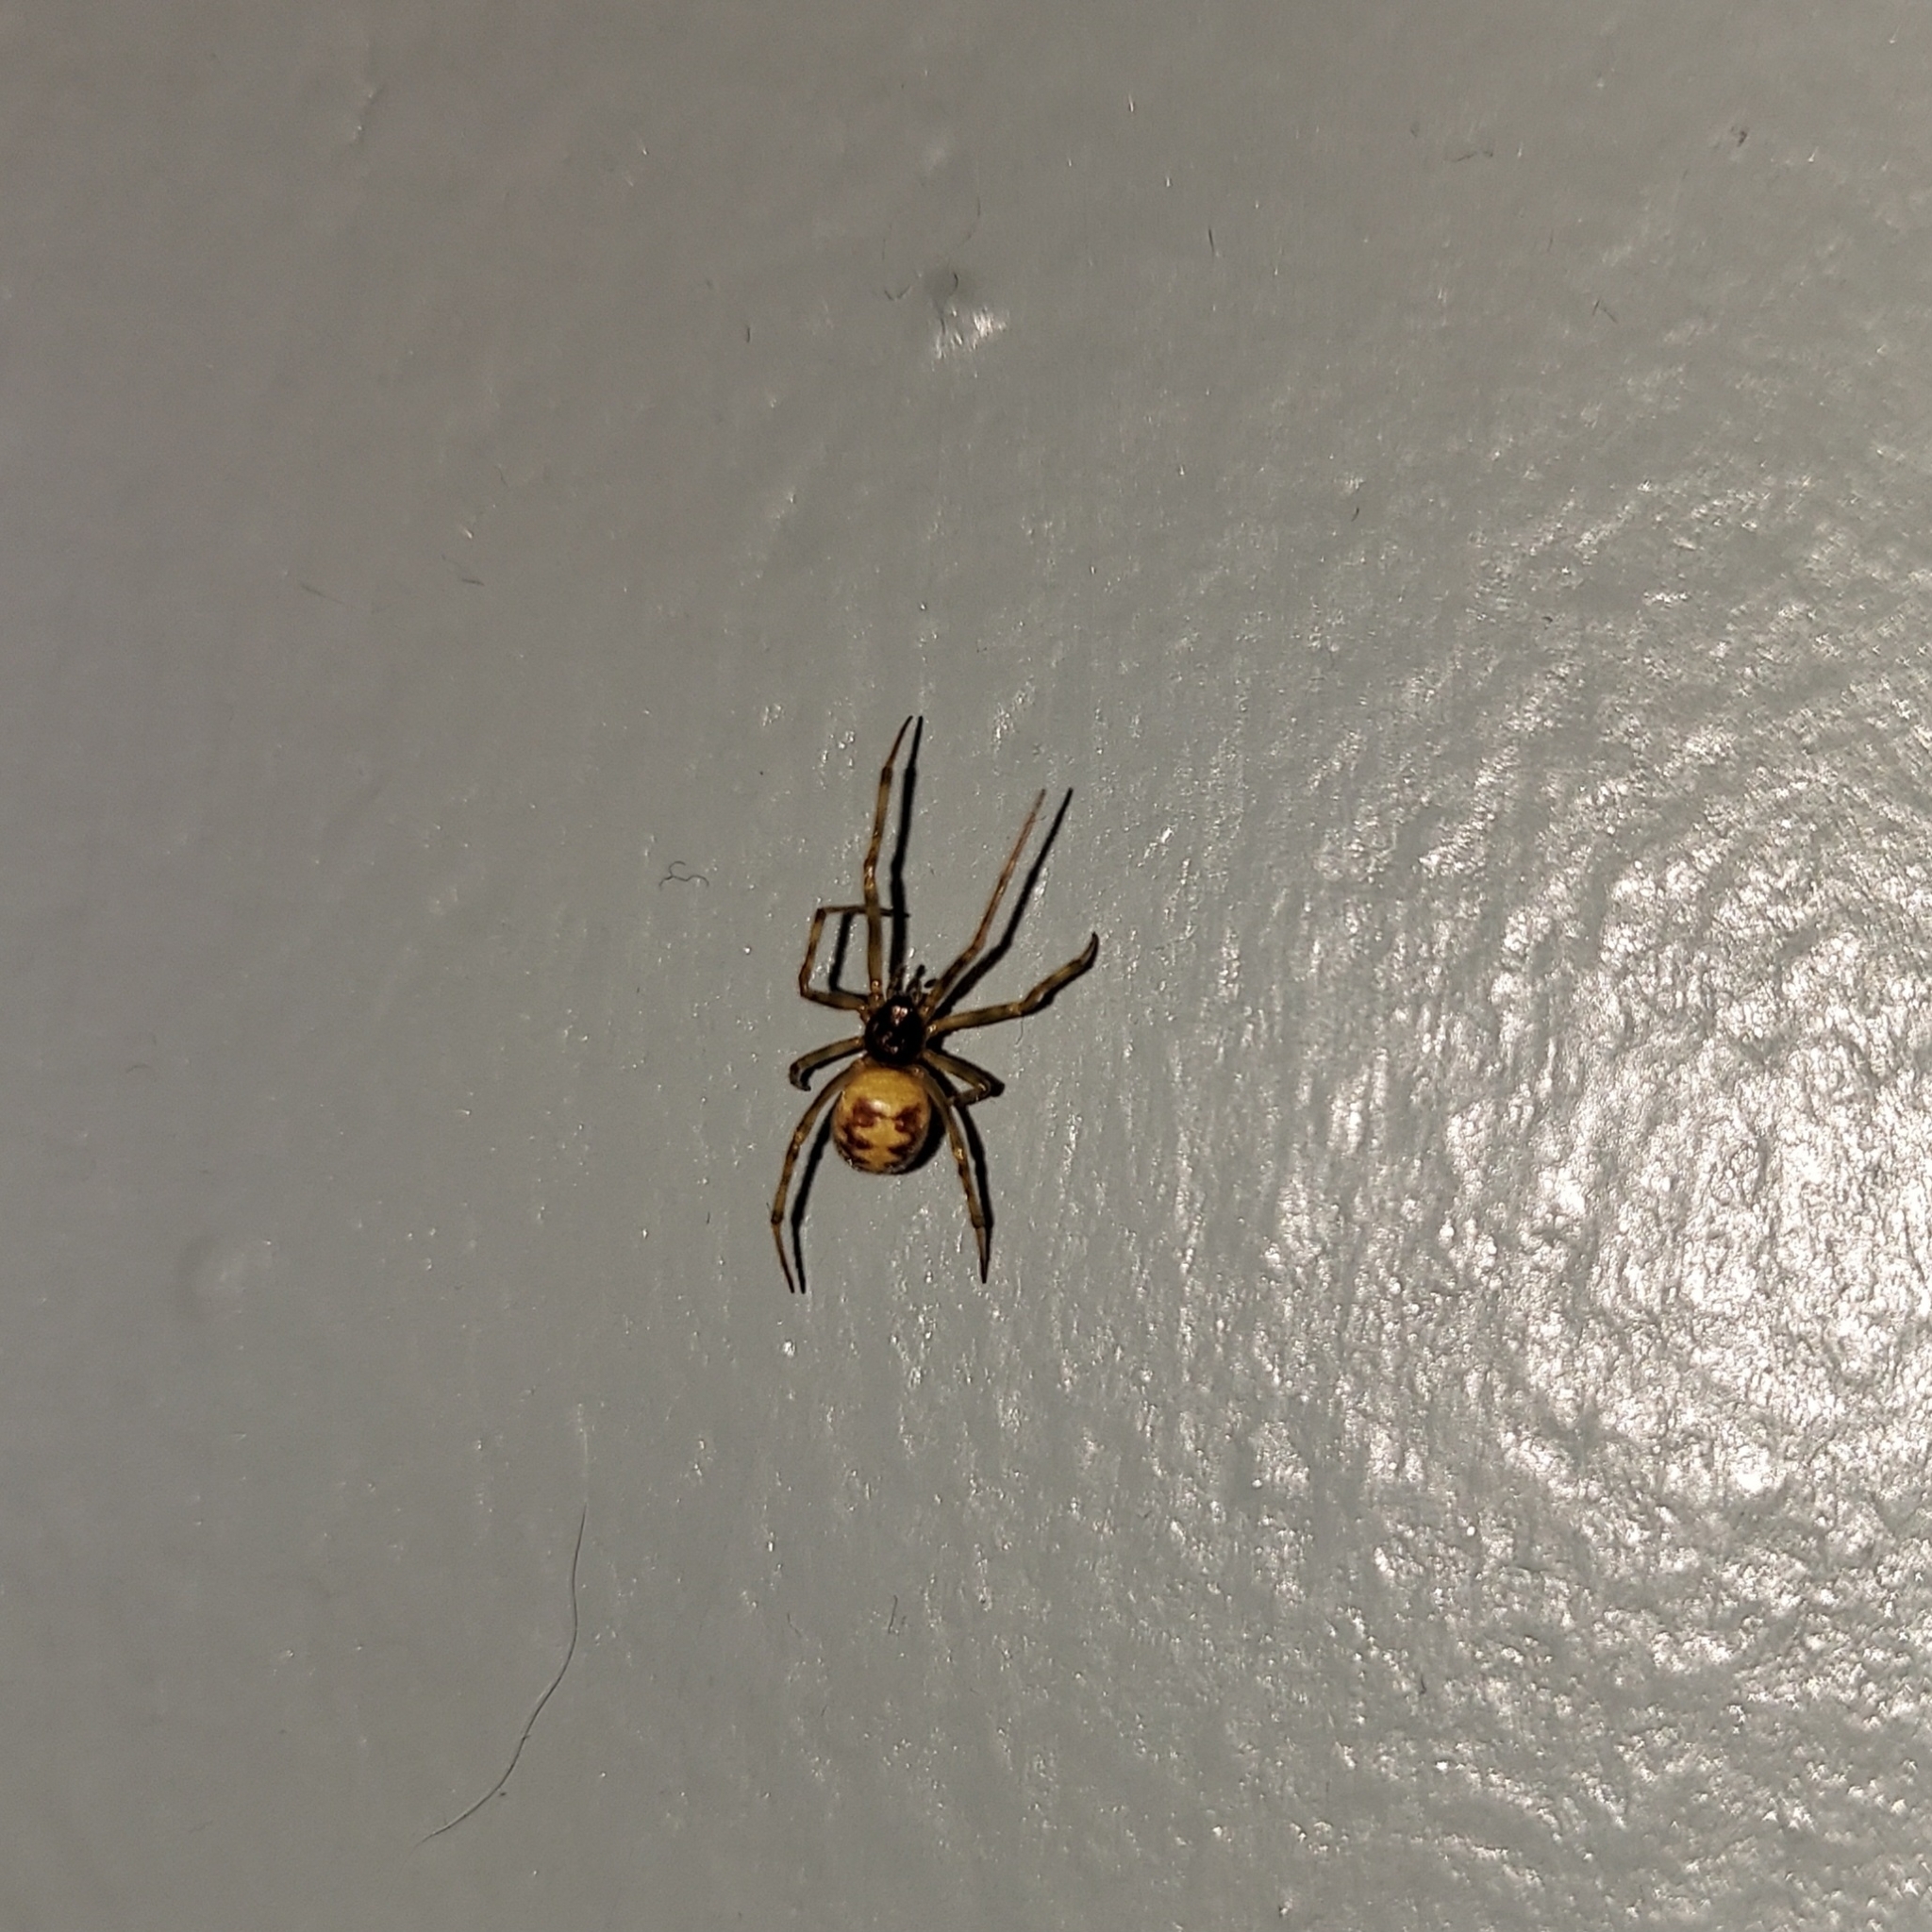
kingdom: Animalia
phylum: Arthropoda
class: Arachnida
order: Araneae
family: Theridiidae
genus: Steatoda
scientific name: Steatoda triangulosa
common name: Triangulate bud spider
